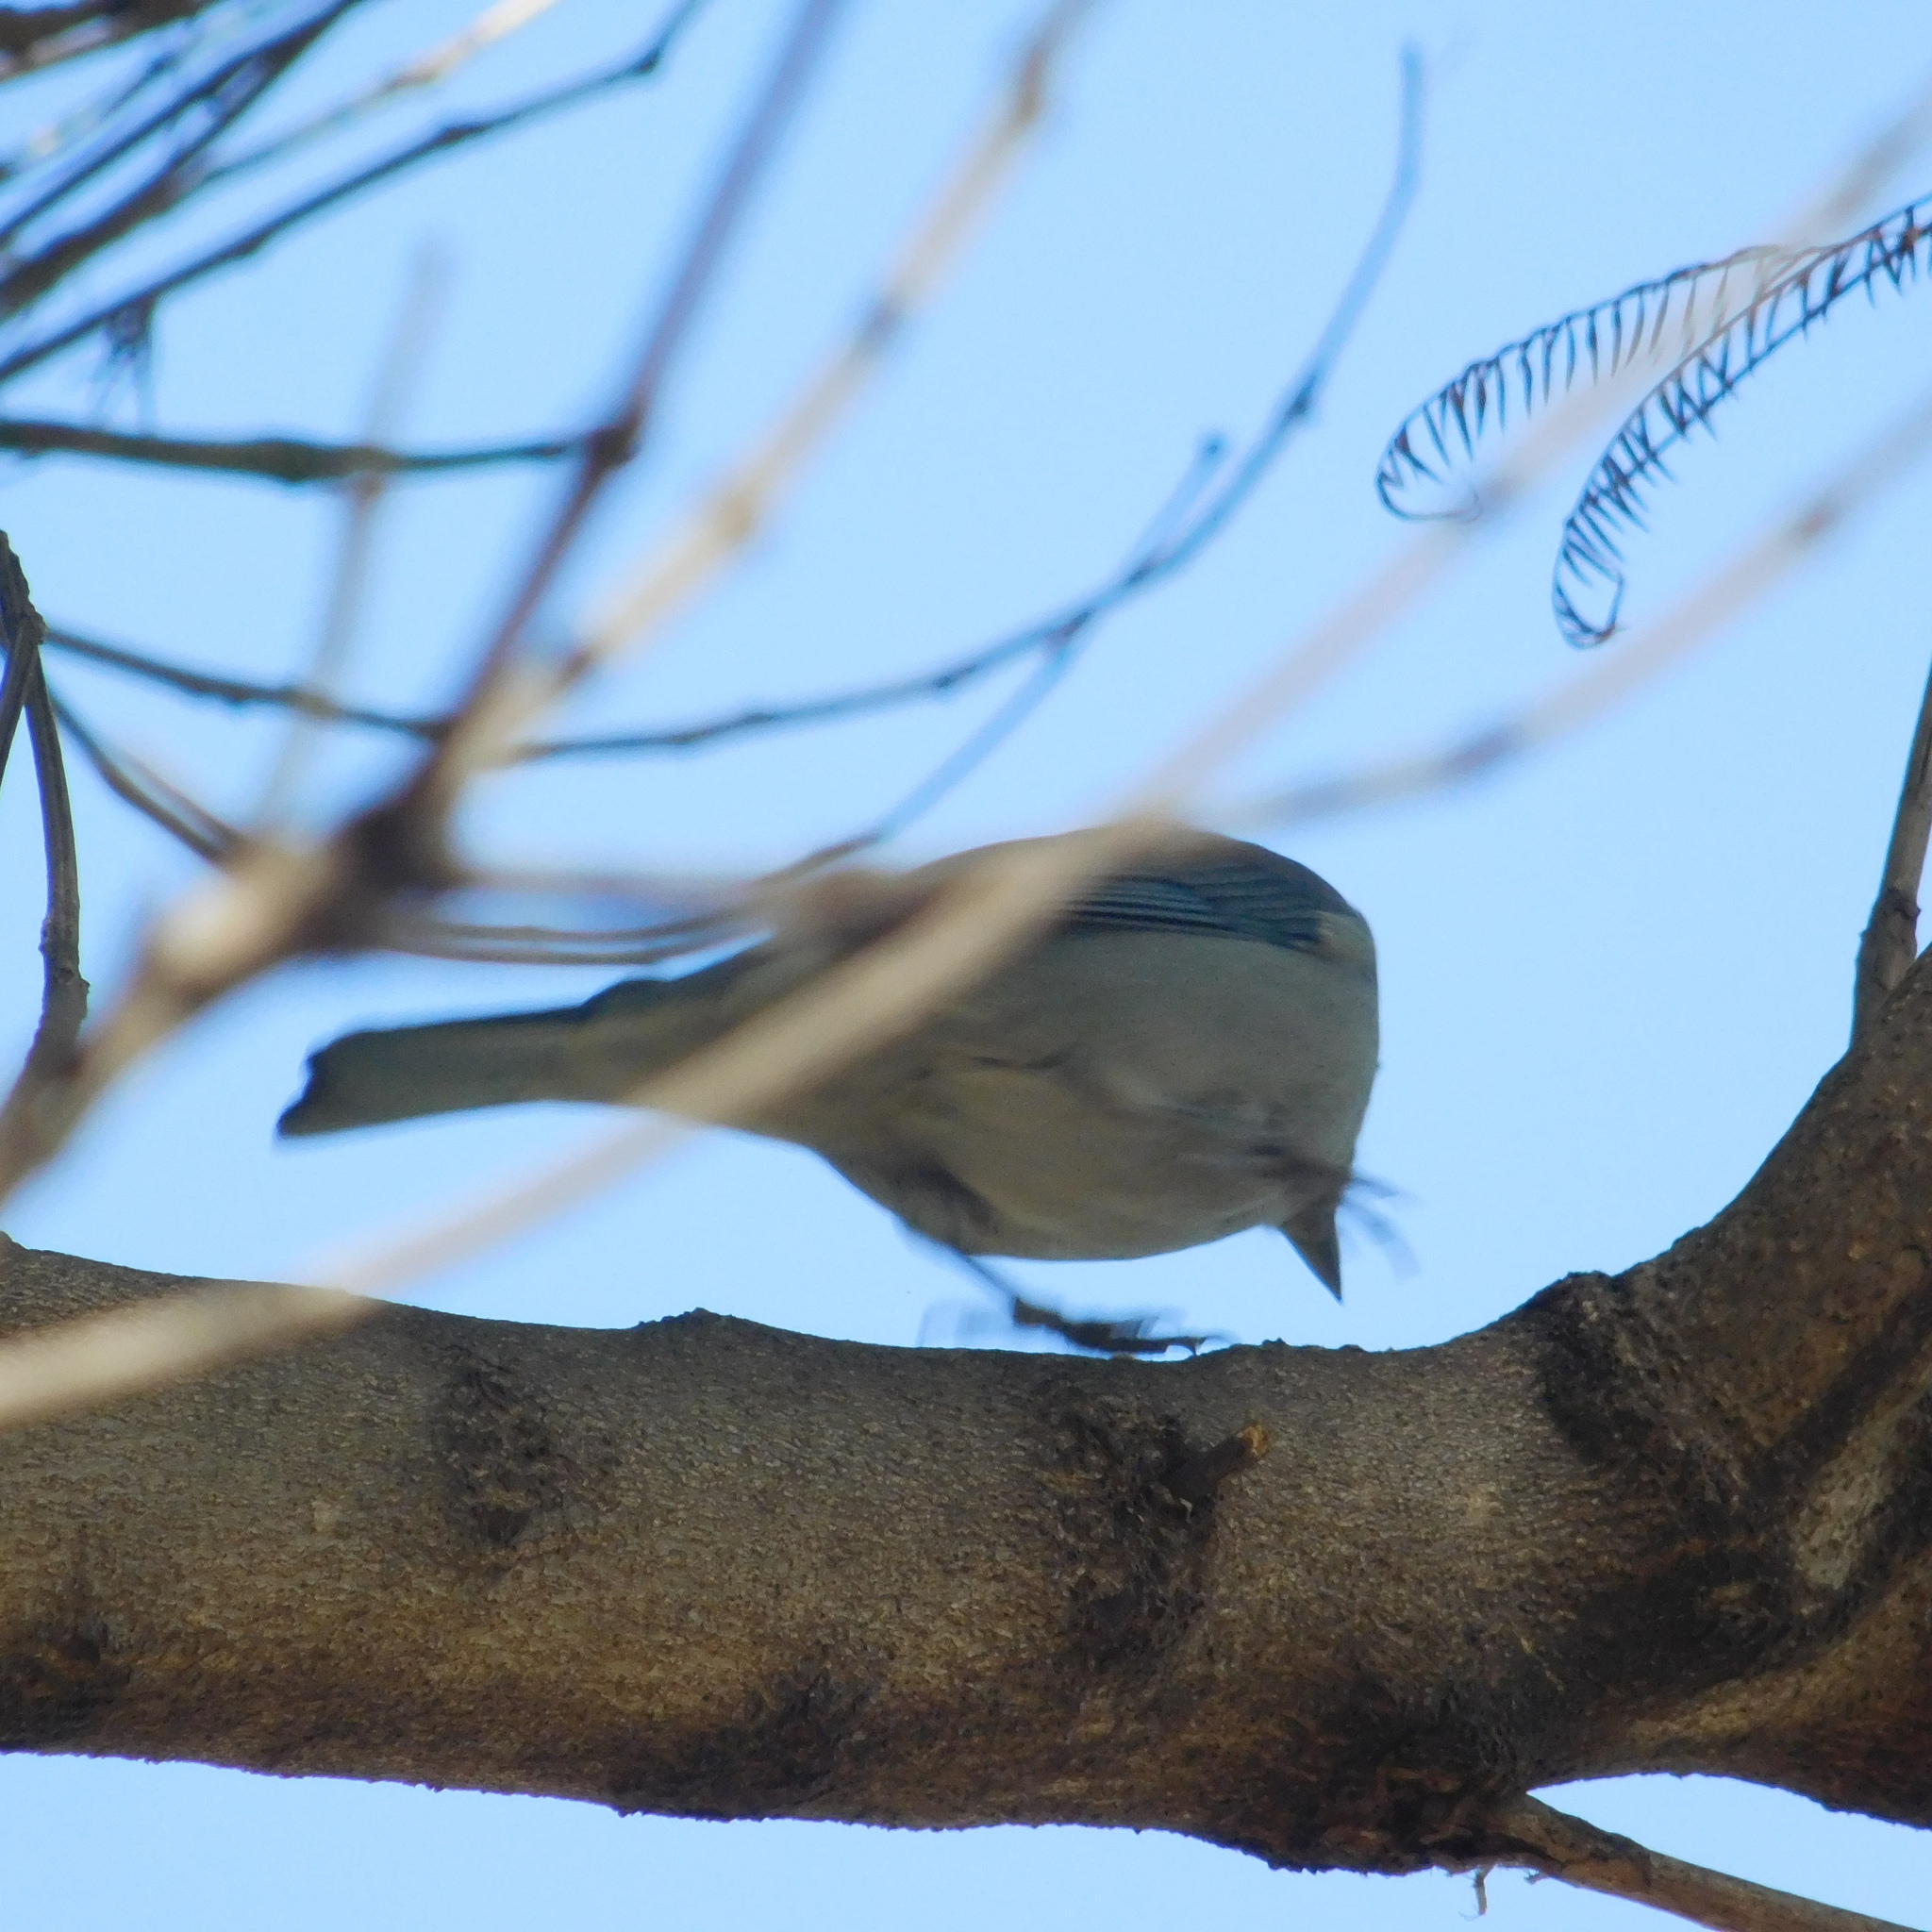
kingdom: Animalia
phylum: Chordata
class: Aves
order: Passeriformes
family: Thraupidae
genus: Thraupis
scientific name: Thraupis sayaca
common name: Sayaca tanager
